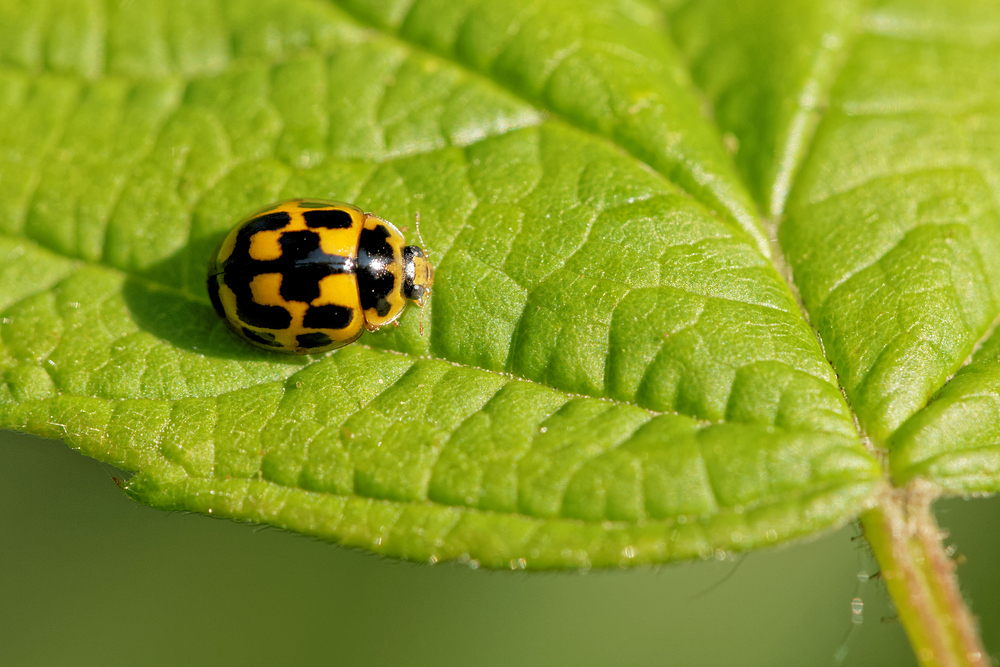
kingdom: Animalia
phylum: Arthropoda
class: Insecta
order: Coleoptera
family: Coccinellidae
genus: Propylaea
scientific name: Propylaea quatuordecimpunctata
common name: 14-spotted ladybird beetle
